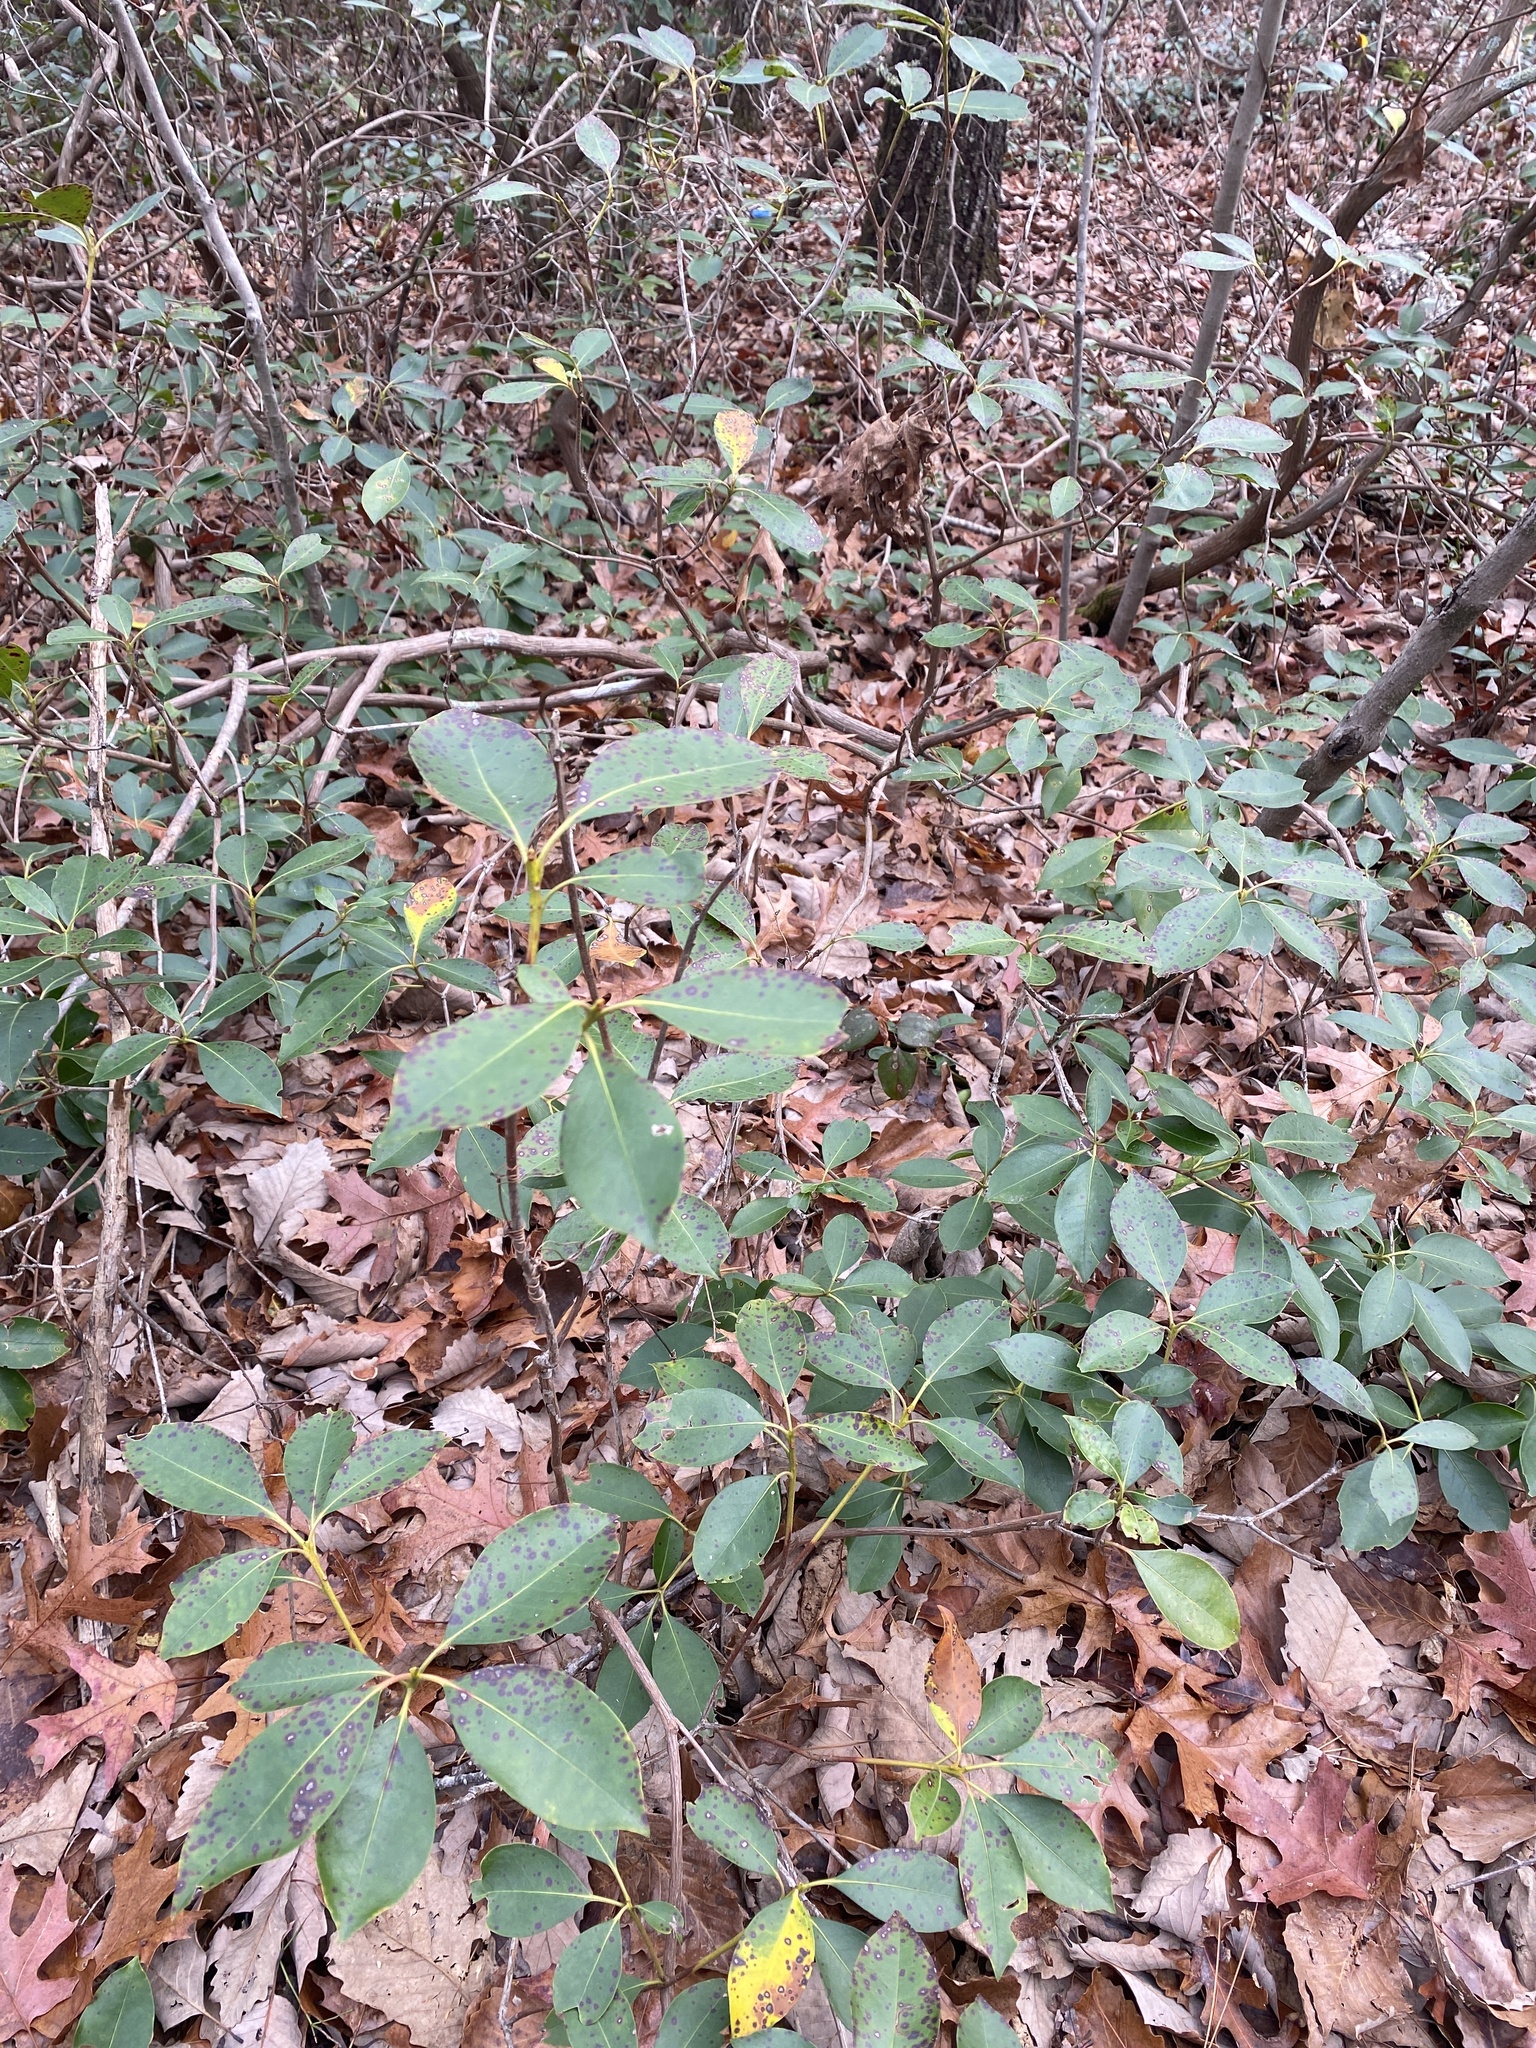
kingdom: Plantae
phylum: Tracheophyta
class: Magnoliopsida
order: Ericales
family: Ericaceae
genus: Kalmia
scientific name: Kalmia latifolia
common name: Mountain-laurel
